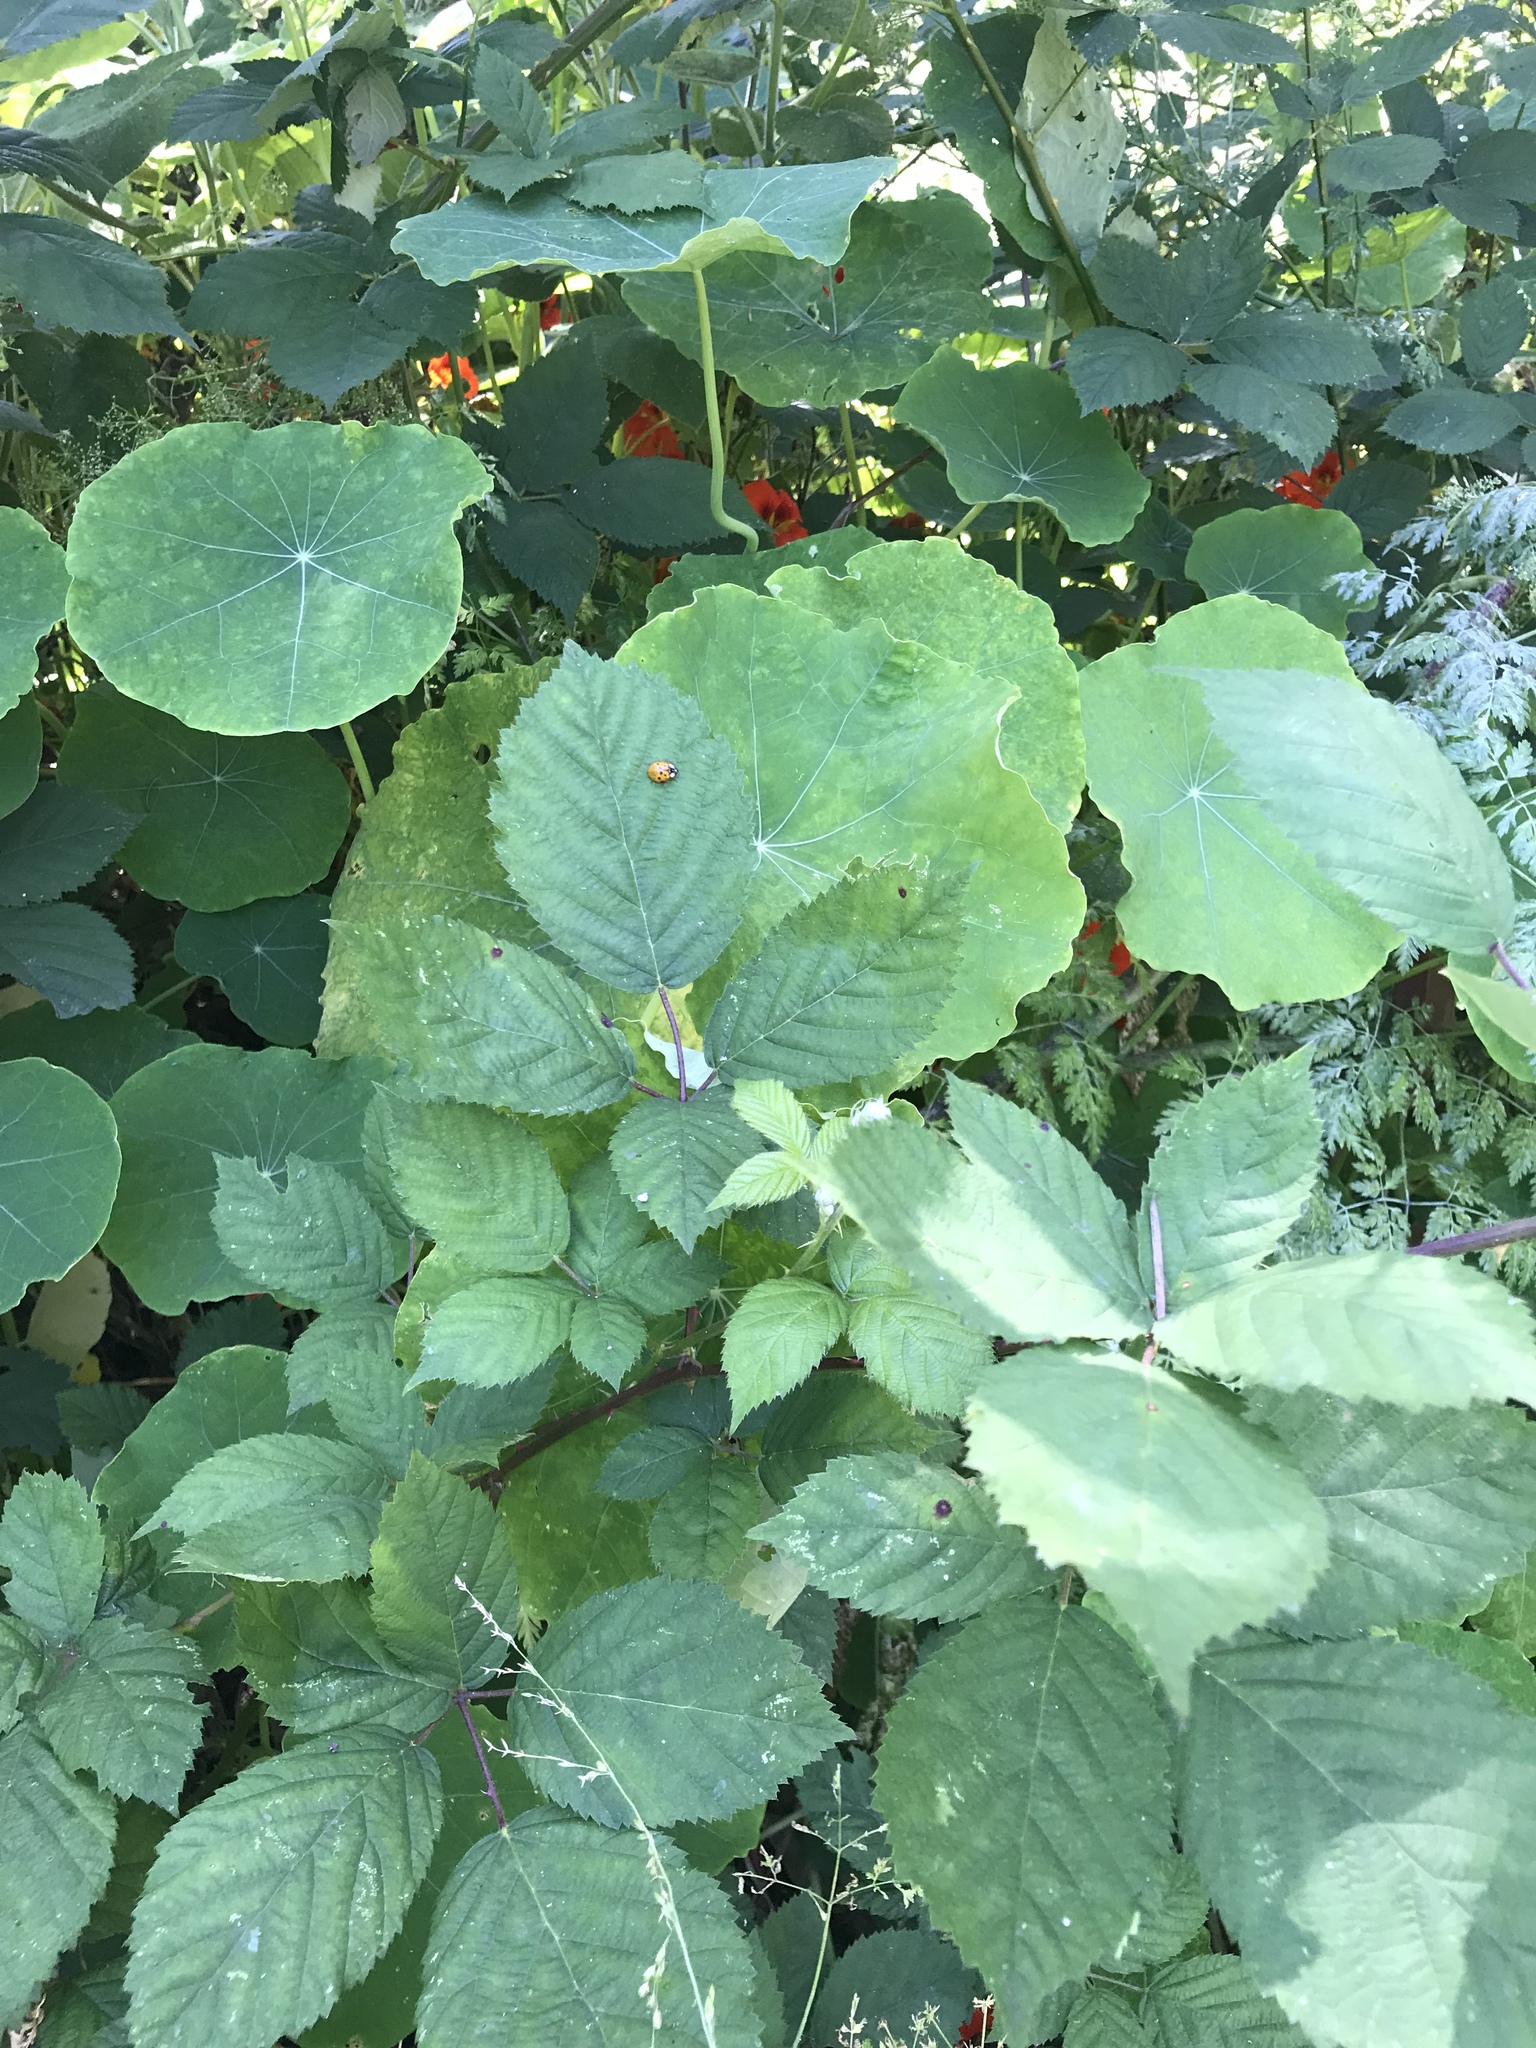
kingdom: Animalia
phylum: Arthropoda
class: Insecta
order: Coleoptera
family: Coccinellidae
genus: Harmonia
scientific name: Harmonia axyridis
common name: Harlequin ladybird
